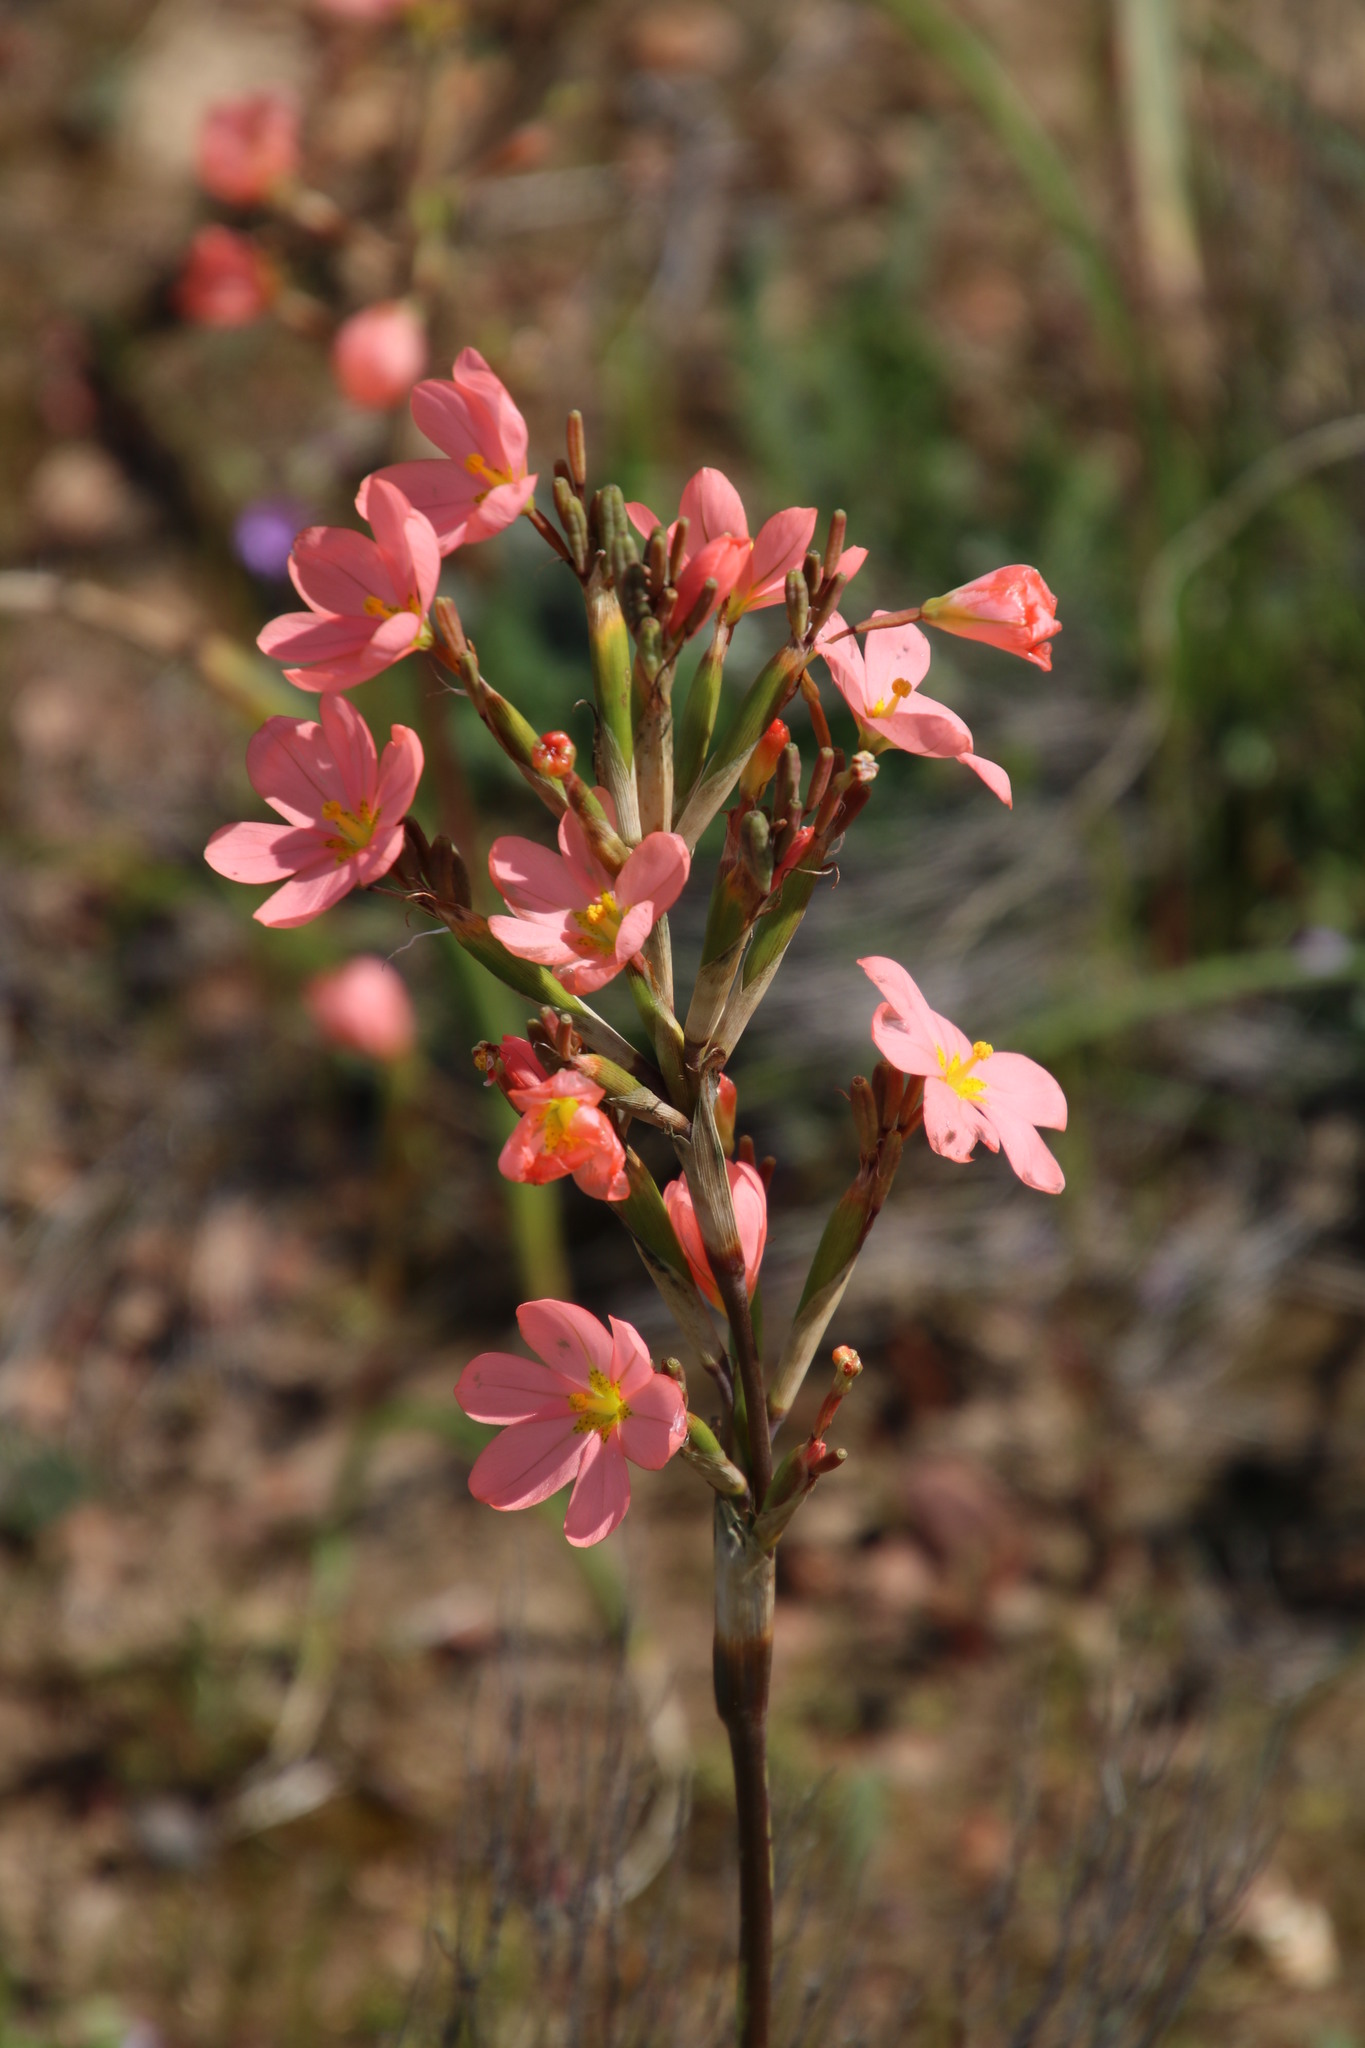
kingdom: Plantae
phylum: Tracheophyta
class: Liliopsida
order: Asparagales
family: Iridaceae
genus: Moraea
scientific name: Moraea miniata
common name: Two-leaf cape-tulip
